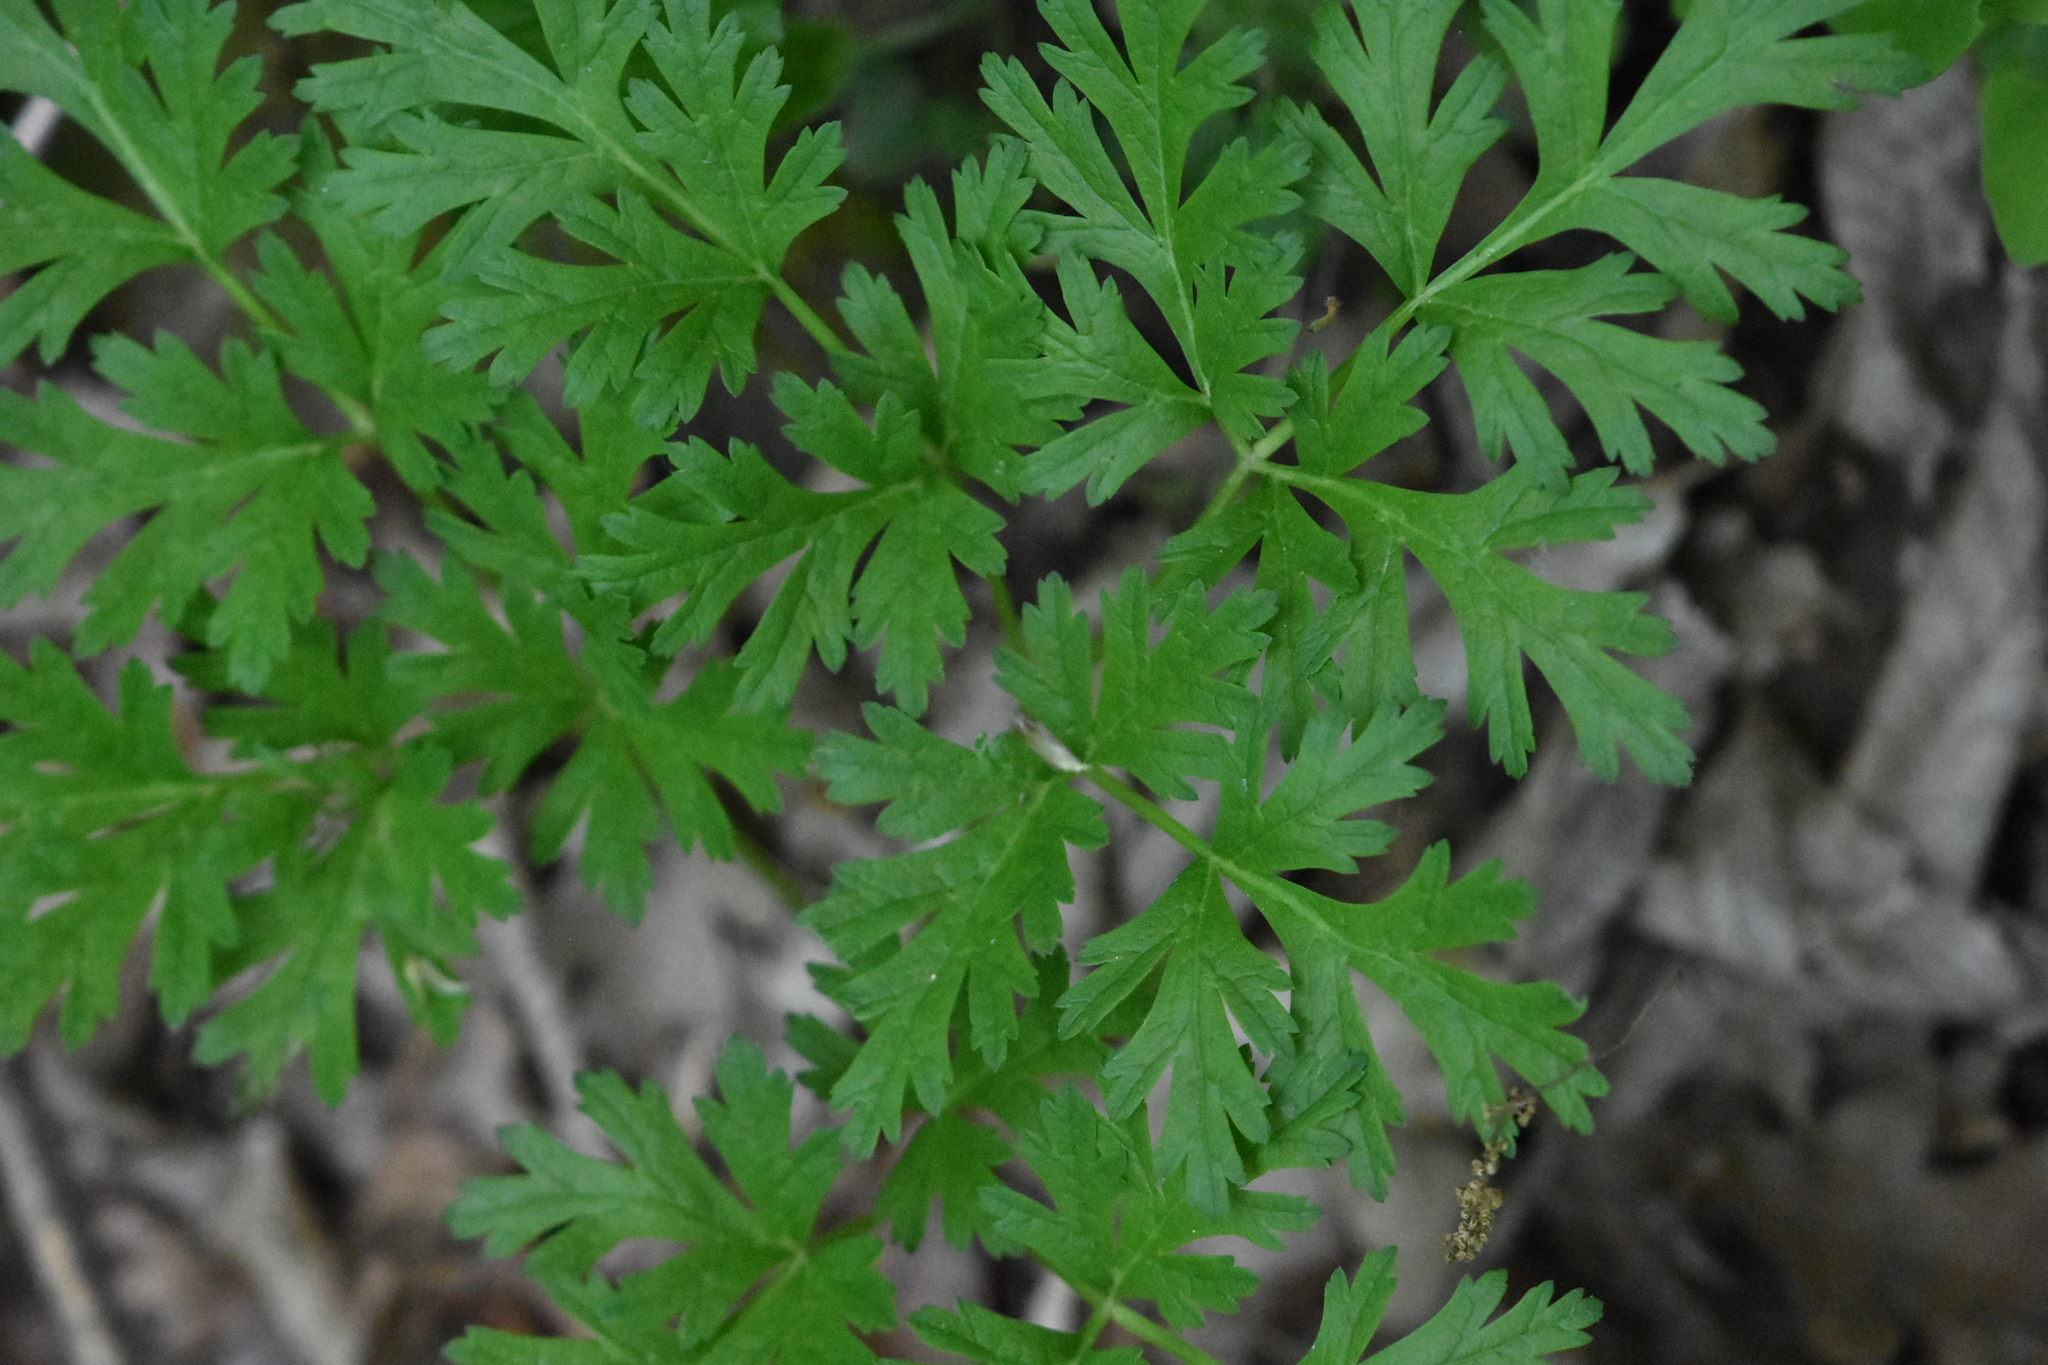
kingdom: Plantae
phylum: Tracheophyta
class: Magnoliopsida
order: Apiales
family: Apiaceae
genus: Physospermum
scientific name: Physospermum cornubiense
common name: Bladderseed
